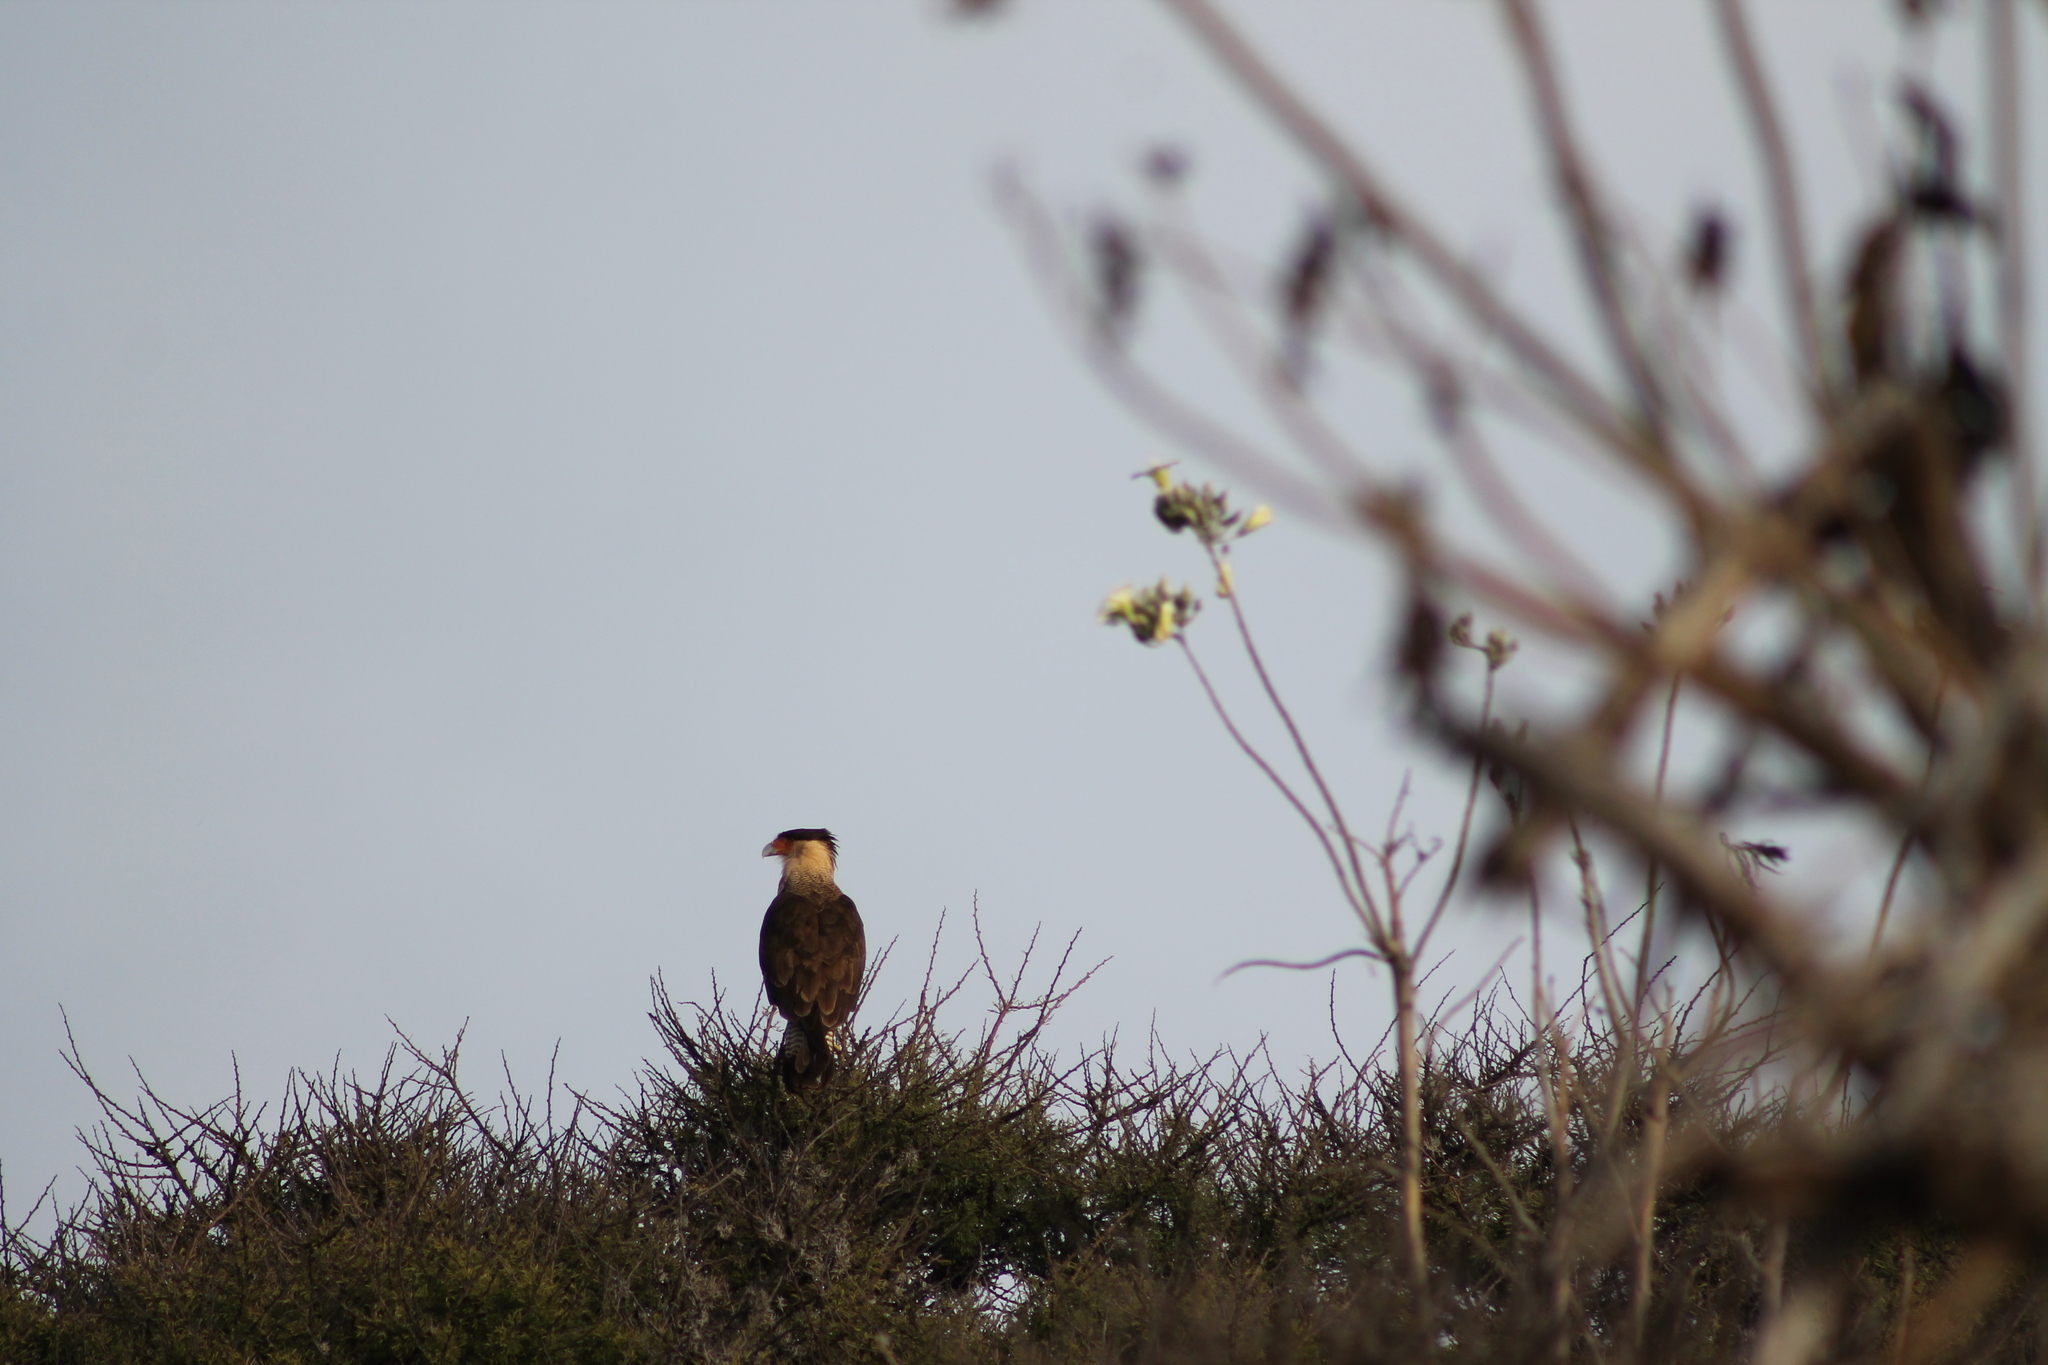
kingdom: Animalia
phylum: Chordata
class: Aves
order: Falconiformes
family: Falconidae
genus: Caracara
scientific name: Caracara plancus
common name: Southern caracara
